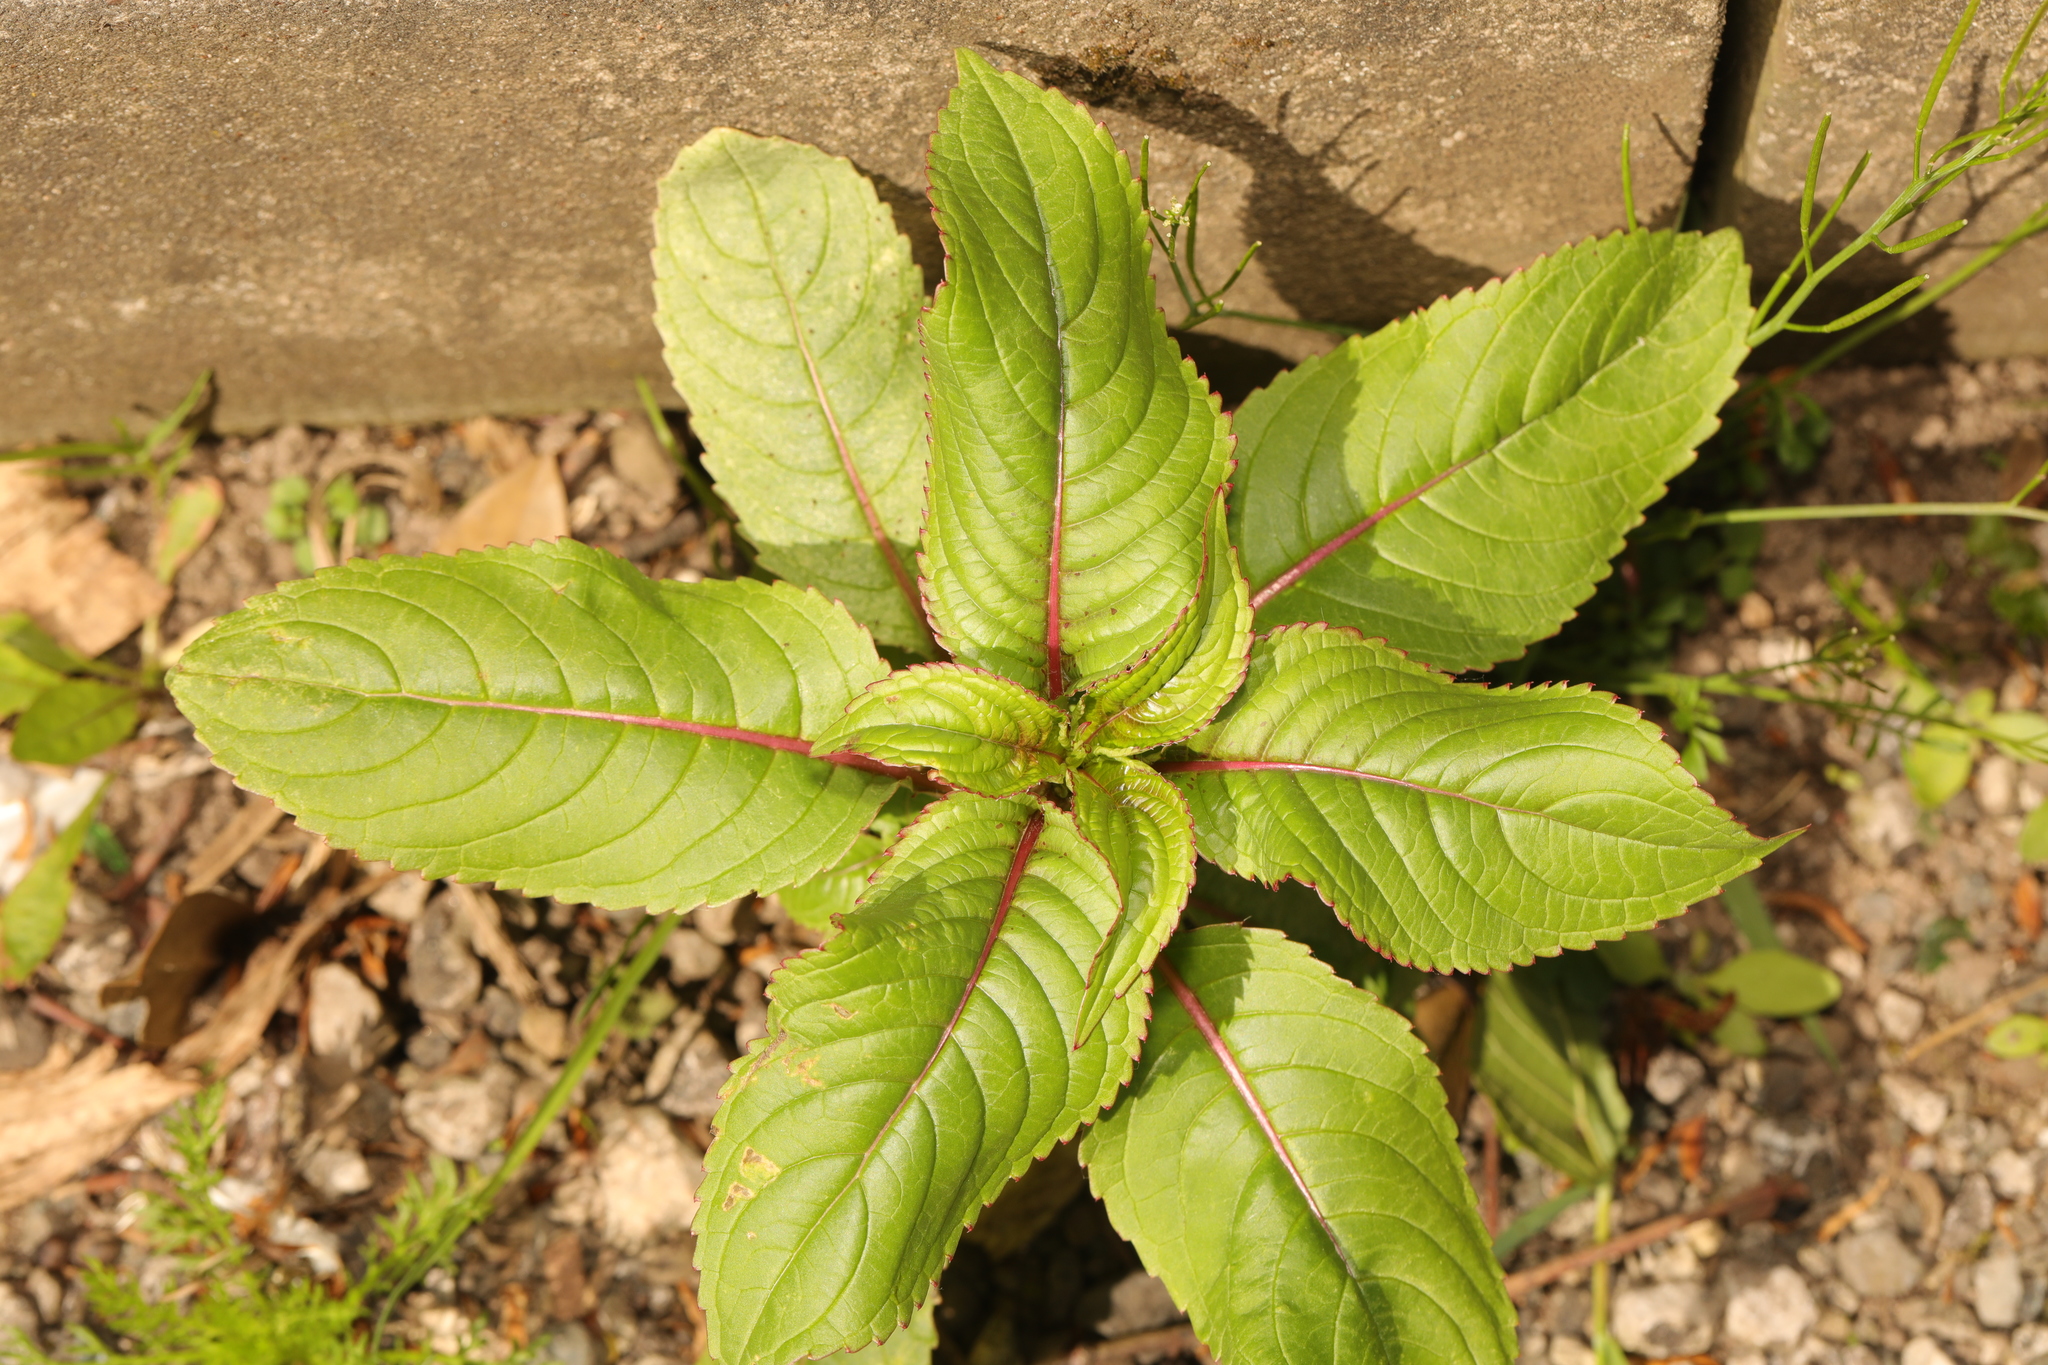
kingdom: Plantae
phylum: Tracheophyta
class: Magnoliopsida
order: Ericales
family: Balsaminaceae
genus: Impatiens
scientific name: Impatiens glandulifera
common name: Himalayan balsam
